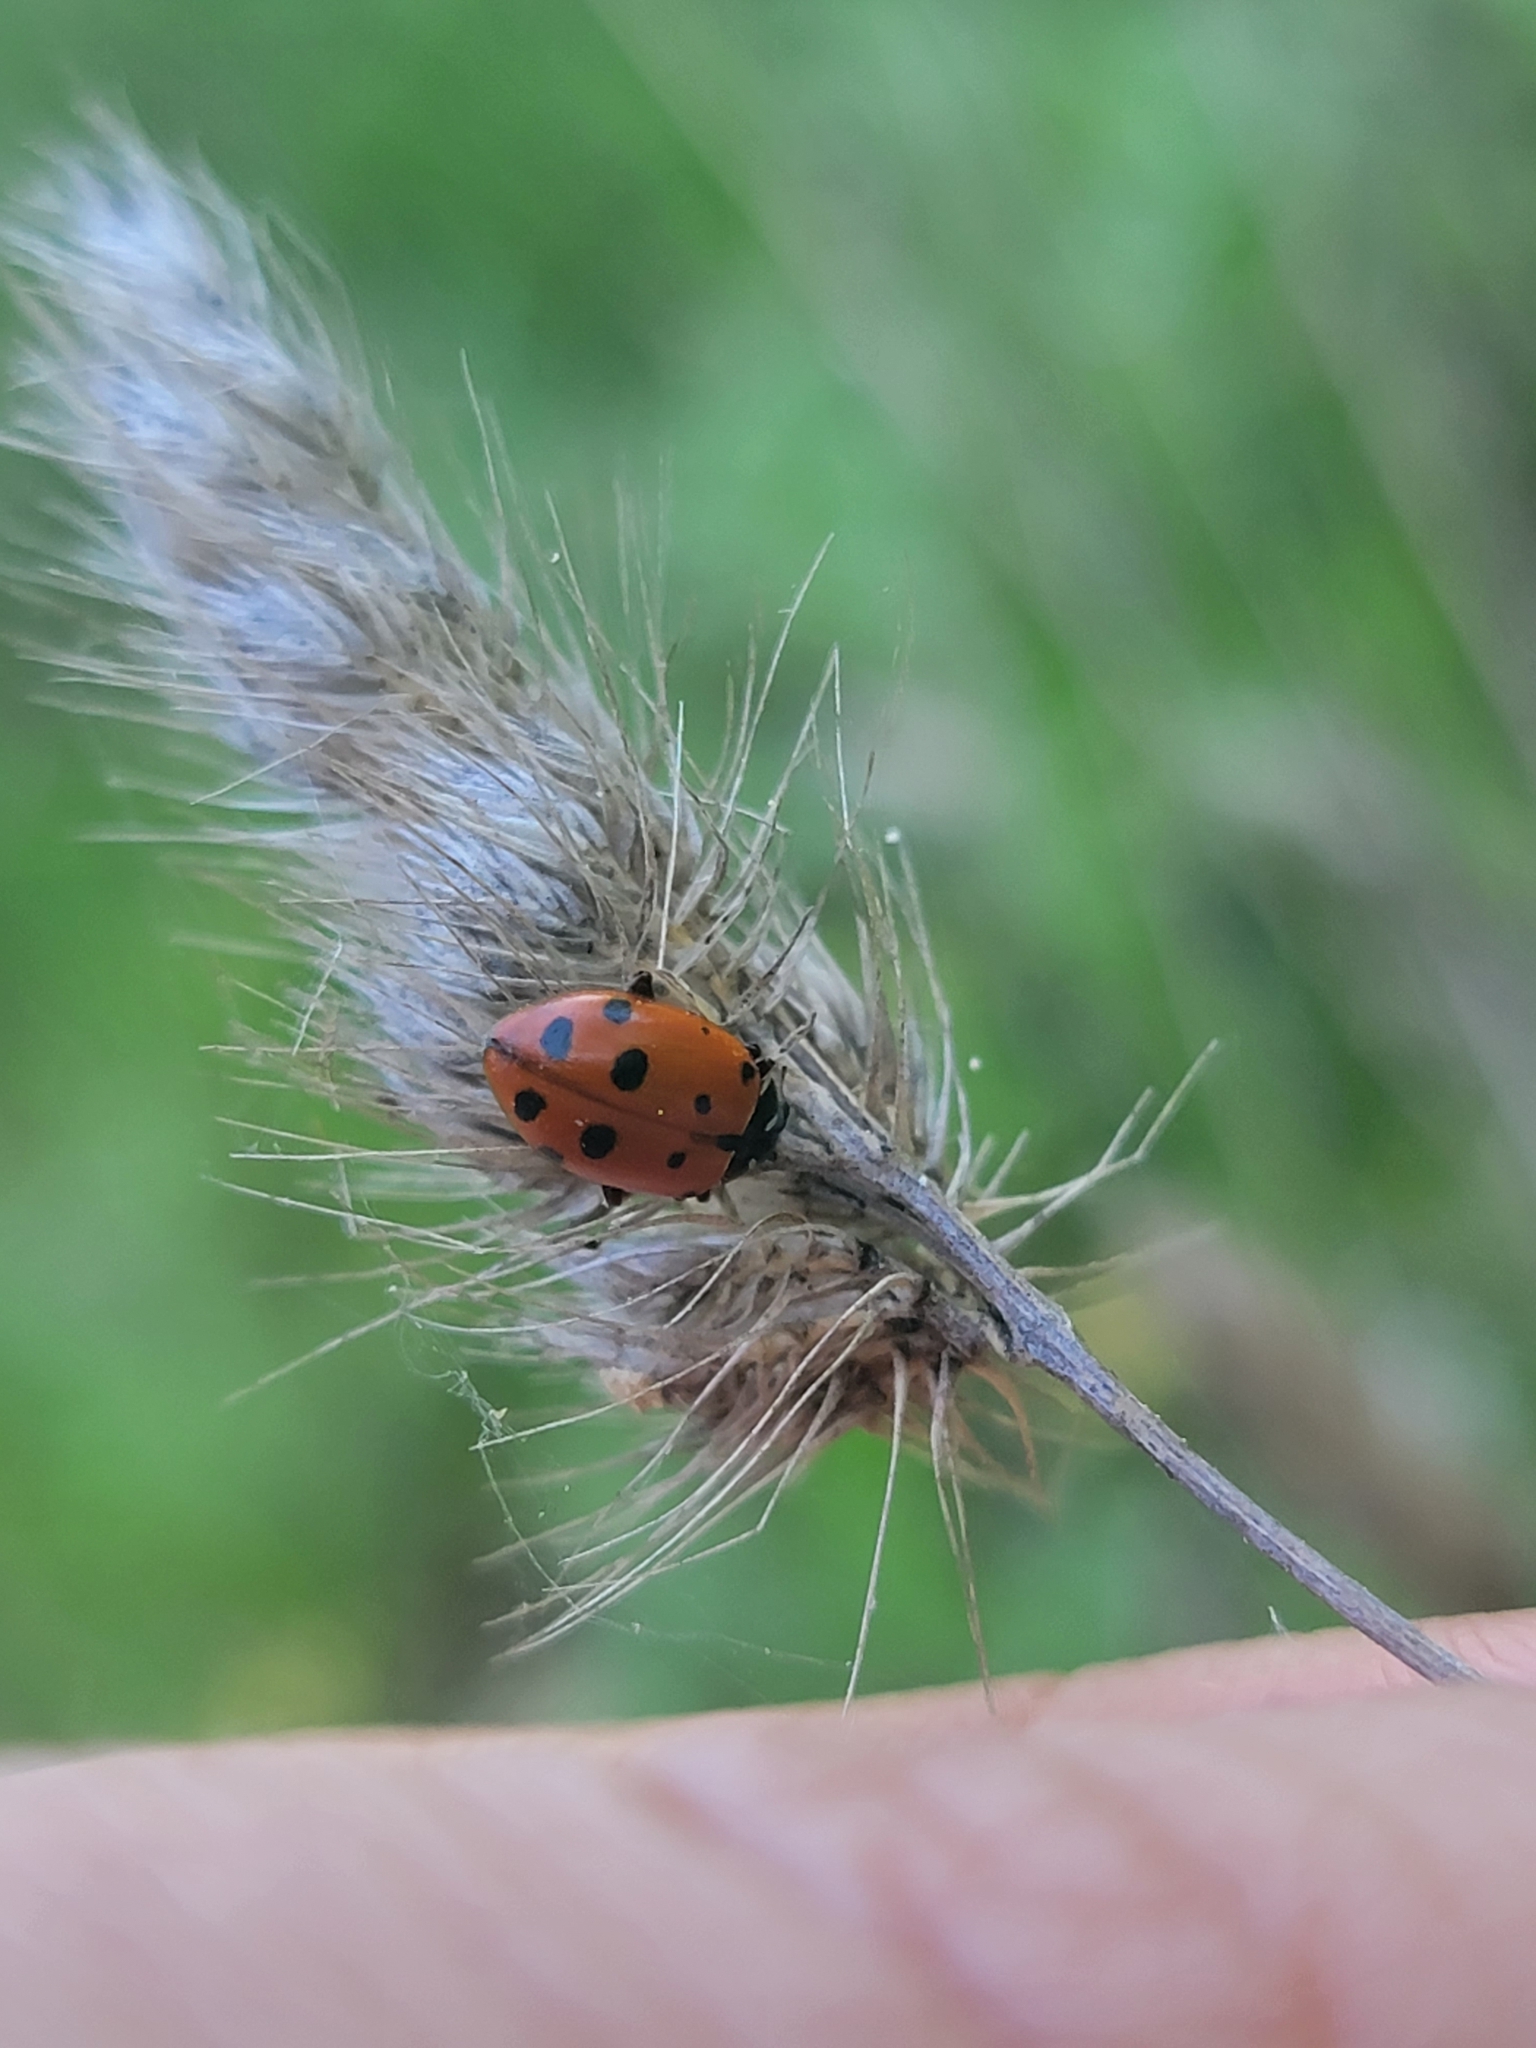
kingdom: Animalia
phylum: Arthropoda
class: Insecta
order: Coleoptera
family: Coccinellidae
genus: Hippodamia
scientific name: Hippodamia convergens
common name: Convergent lady beetle
